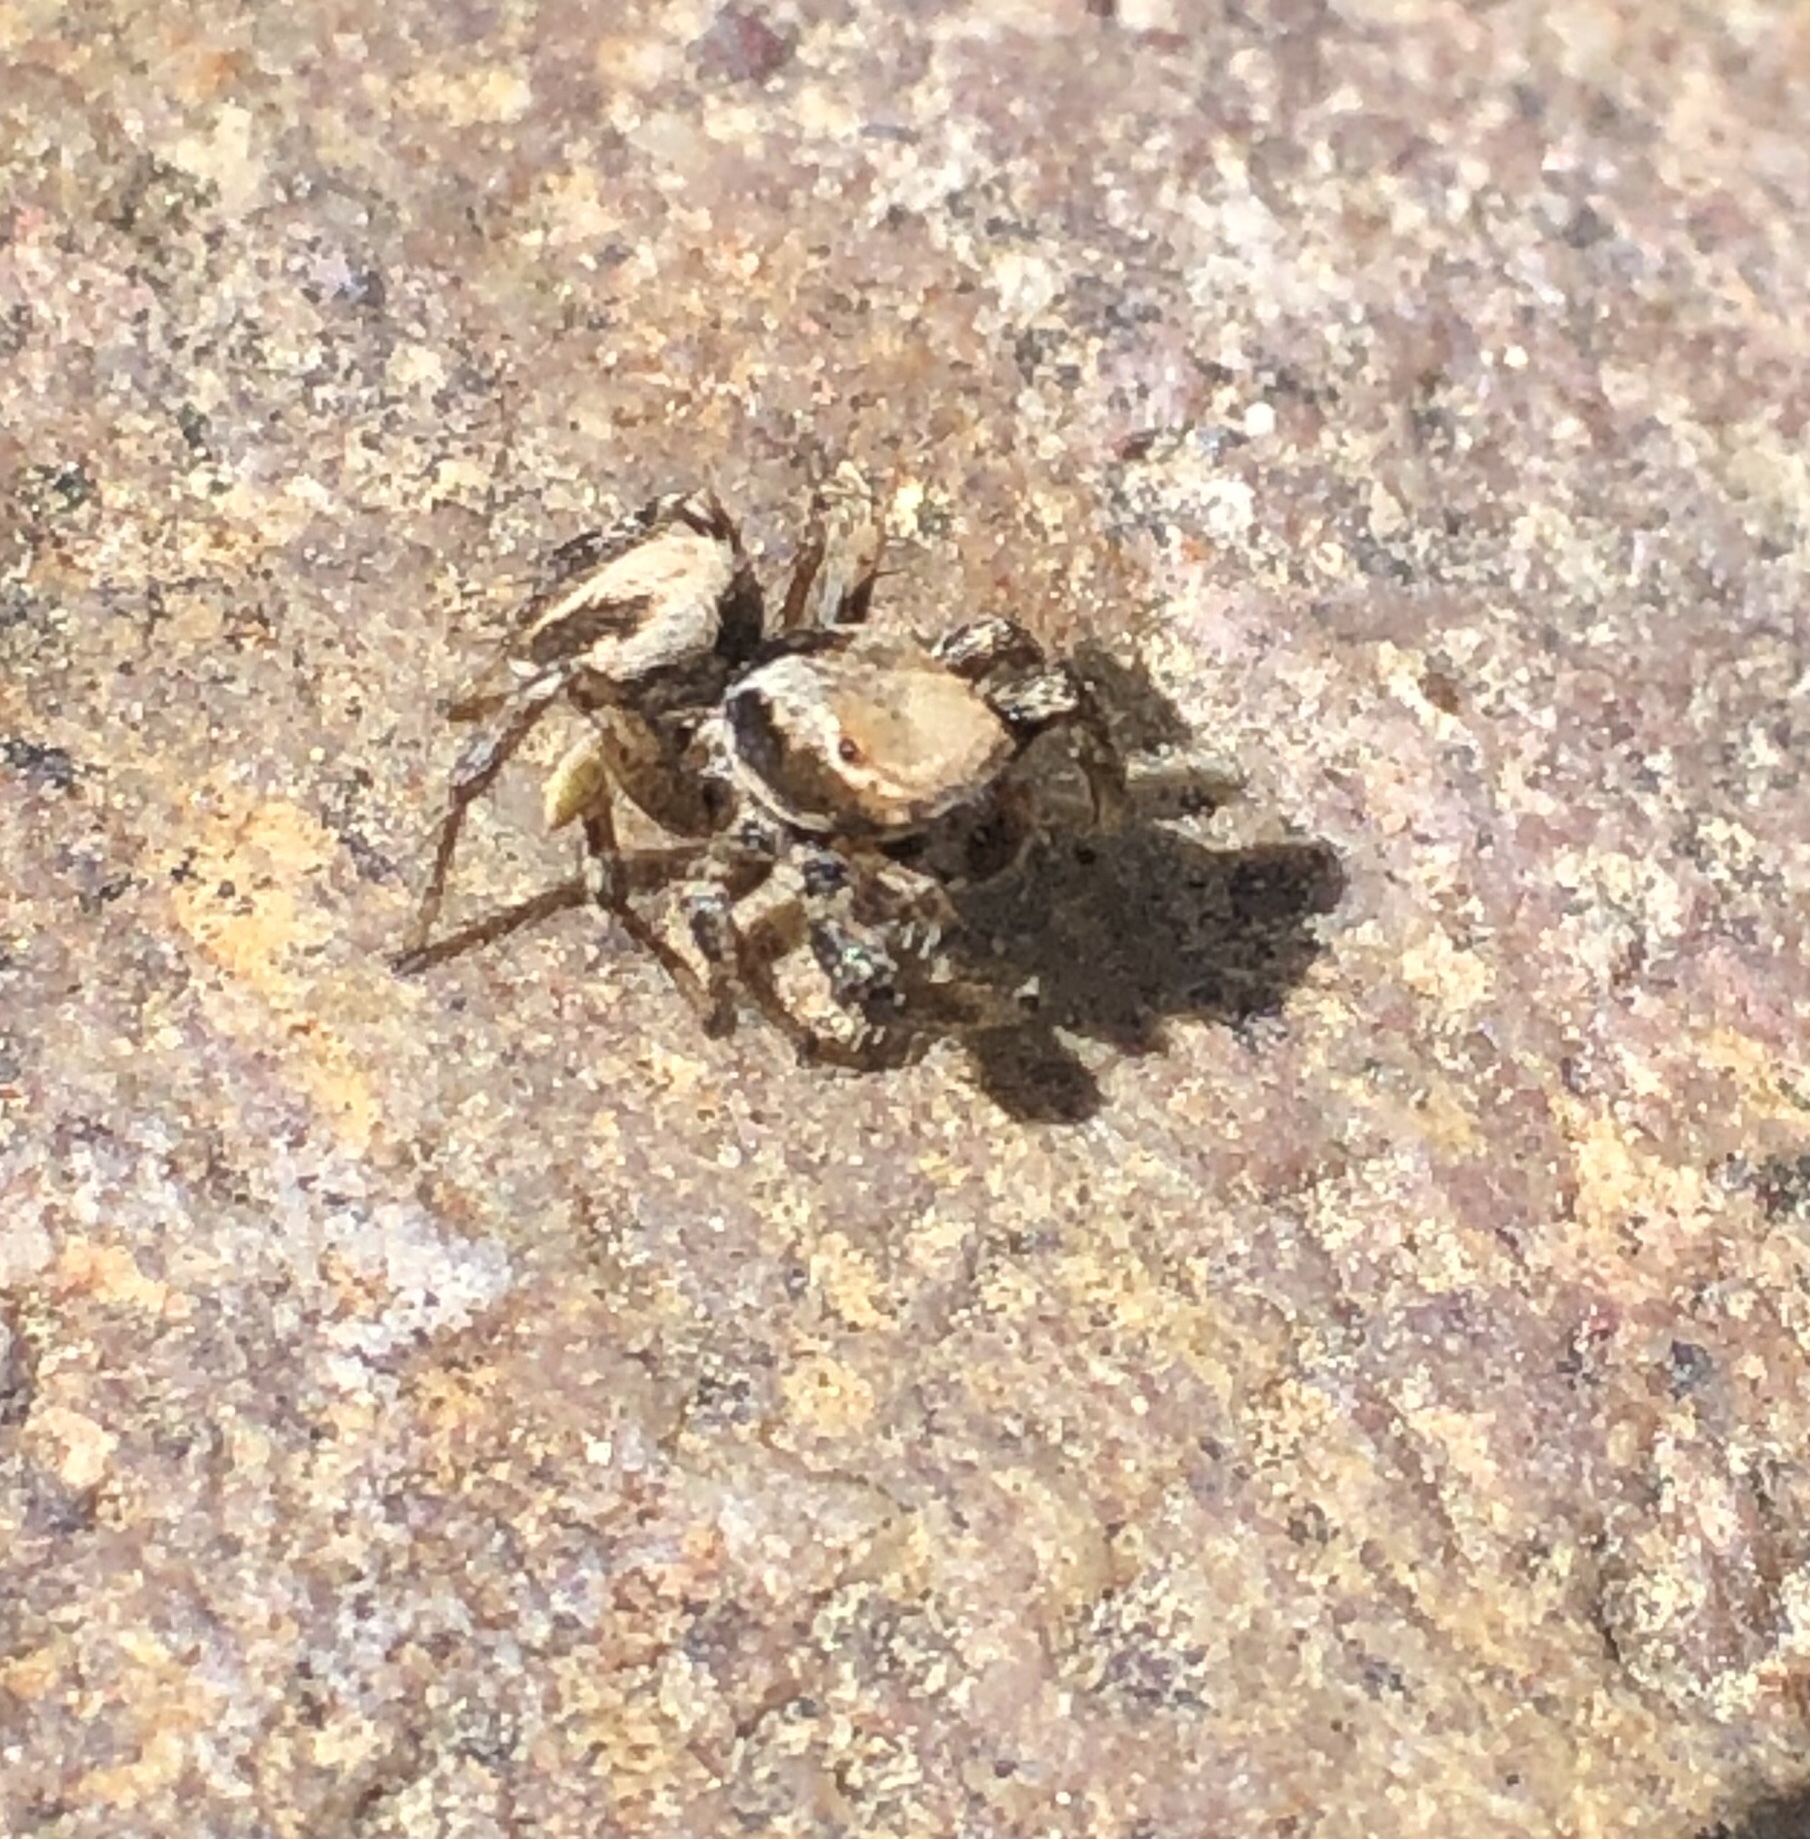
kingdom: Animalia
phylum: Arthropoda
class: Arachnida
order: Araneae
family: Salticidae
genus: Habronattus
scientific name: Habronattus californicus
